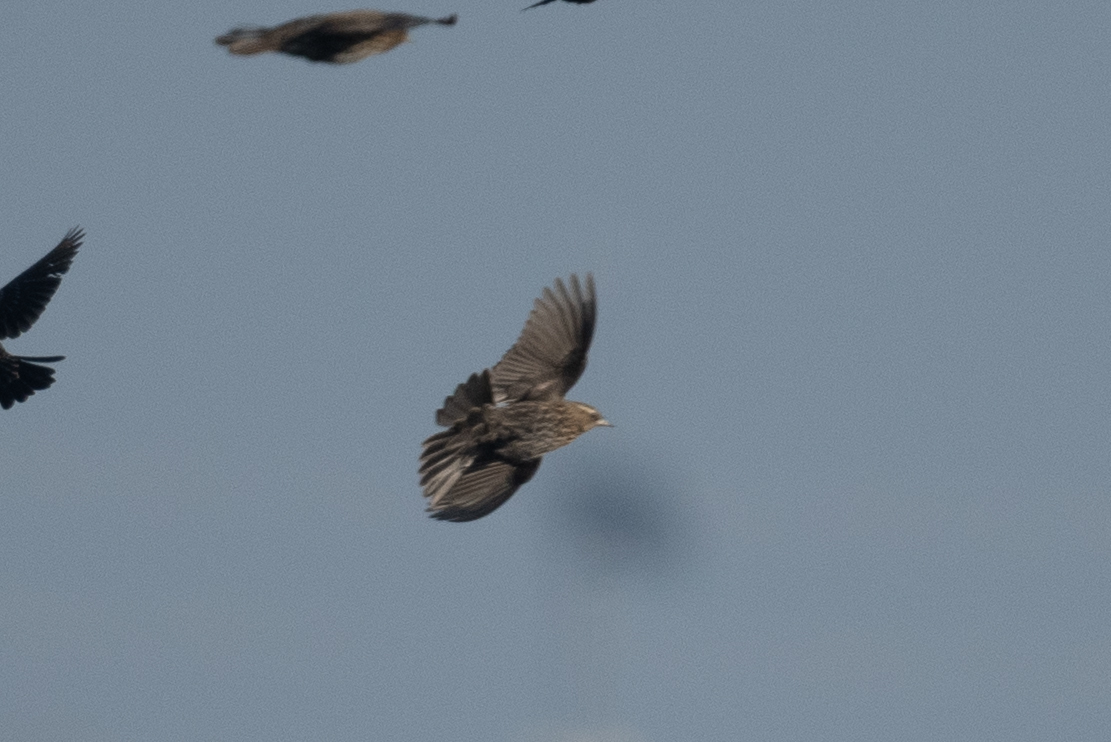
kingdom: Animalia
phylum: Chordata
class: Aves
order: Passeriformes
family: Icteridae
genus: Agelaius
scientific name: Agelaius phoeniceus
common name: Red-winged blackbird
